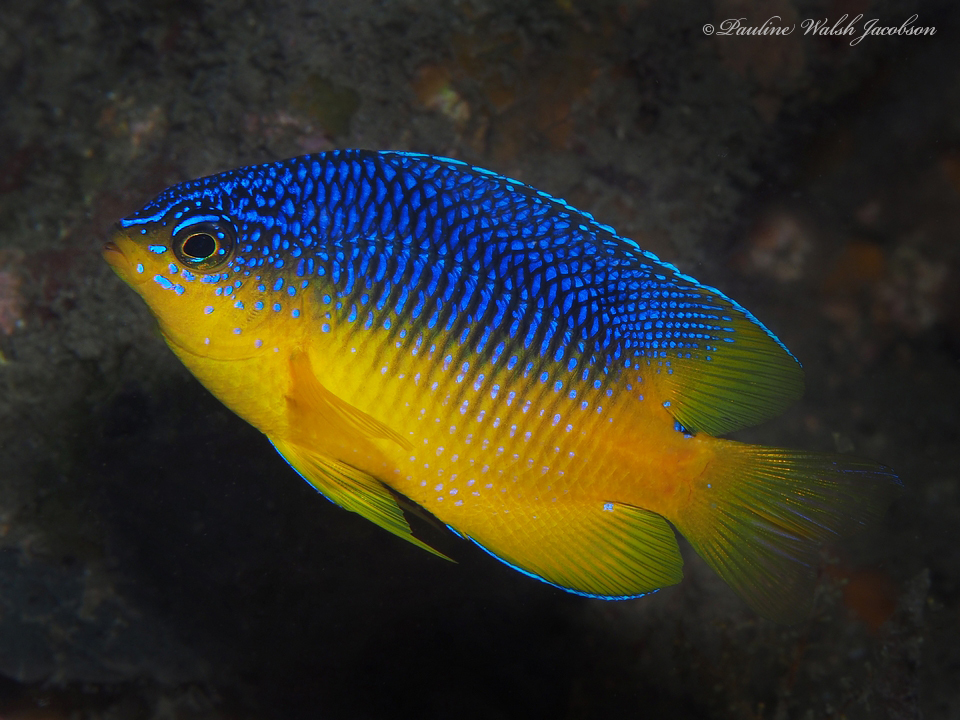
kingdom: Animalia
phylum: Chordata
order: Perciformes
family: Pomacentridae
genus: Stegastes
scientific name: Stegastes xanthurus
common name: Cocoa damselfish
